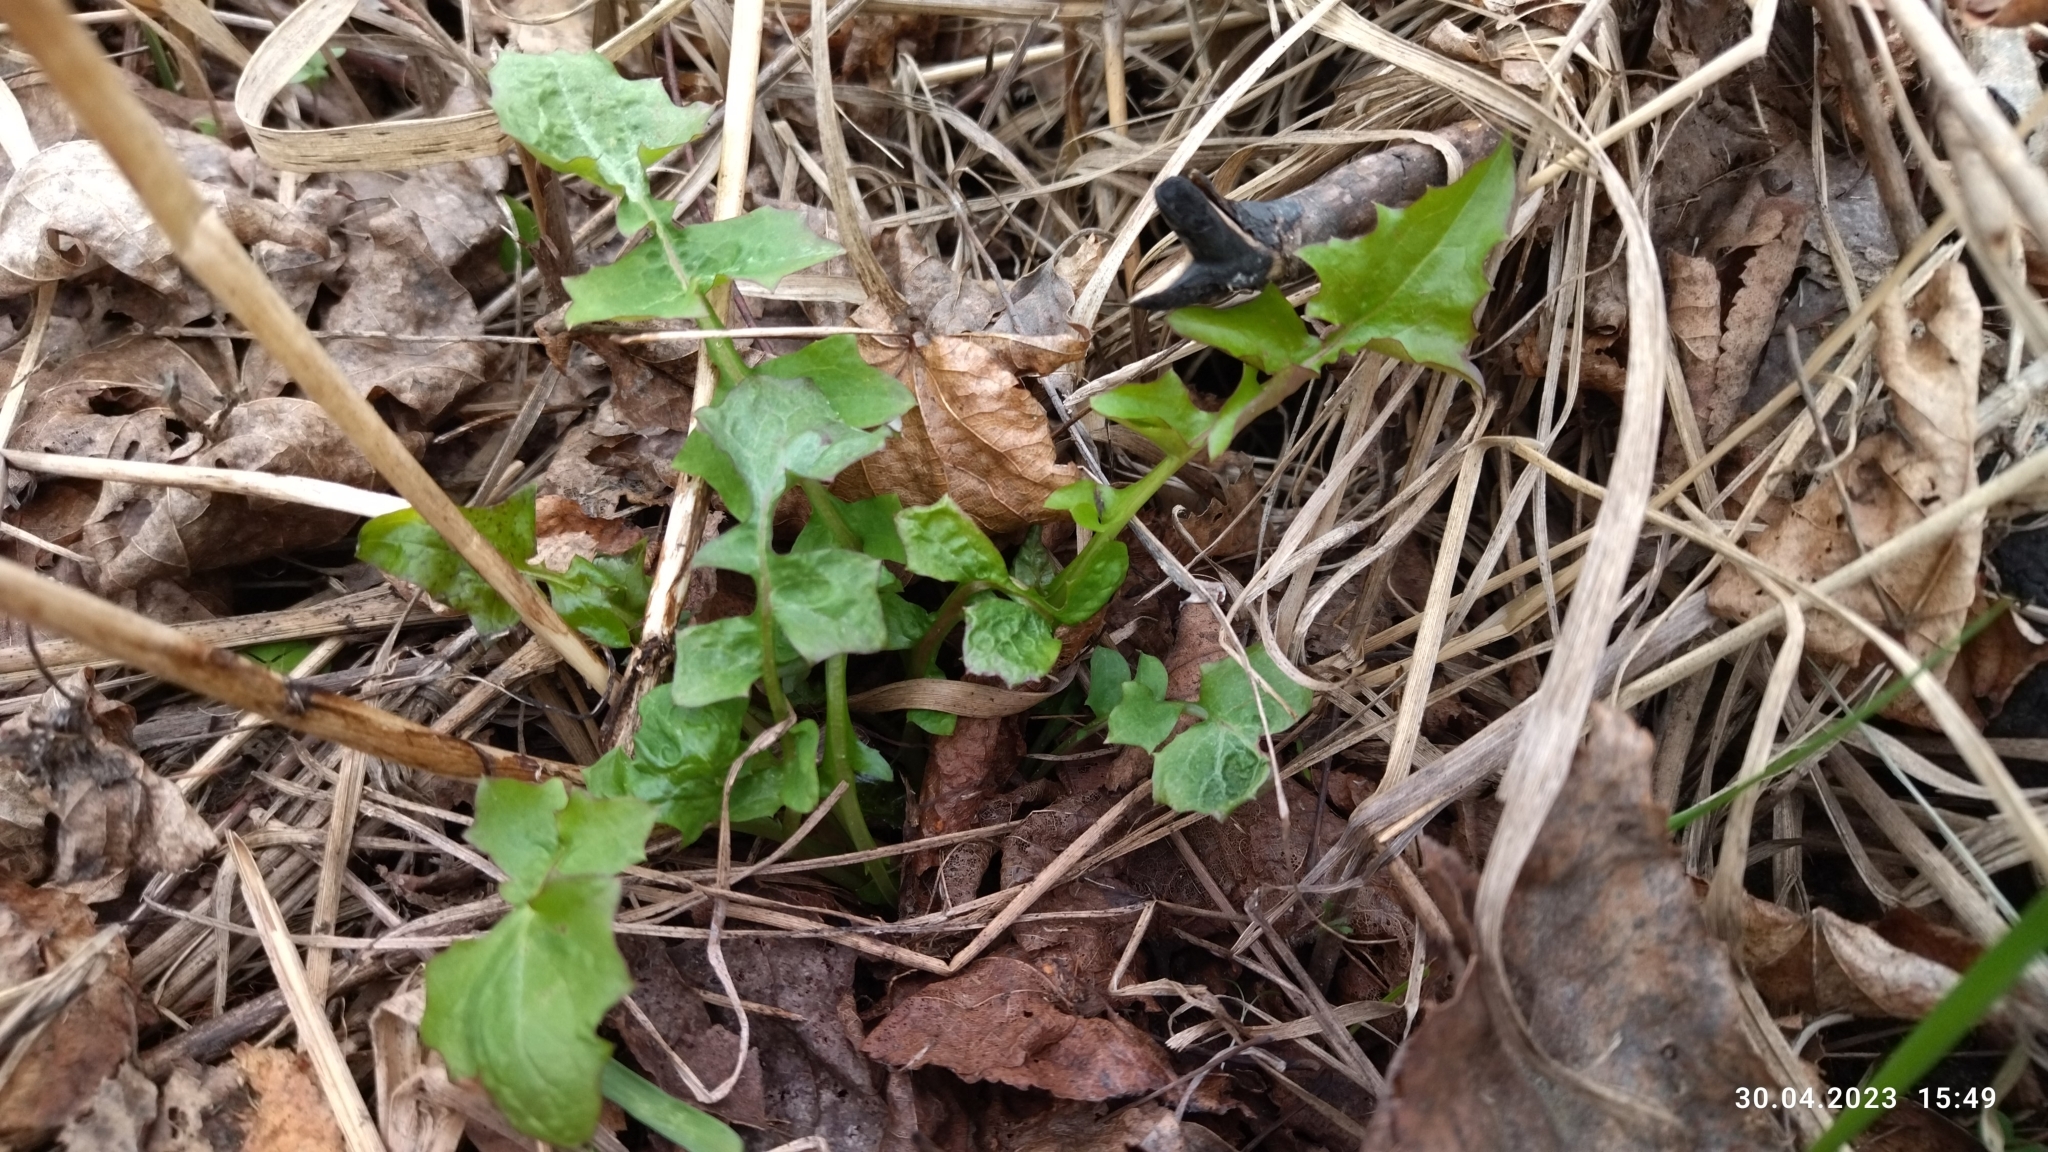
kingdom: Plantae
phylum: Tracheophyta
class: Magnoliopsida
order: Asterales
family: Asteraceae
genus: Mycelis
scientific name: Mycelis muralis
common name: Wall lettuce
